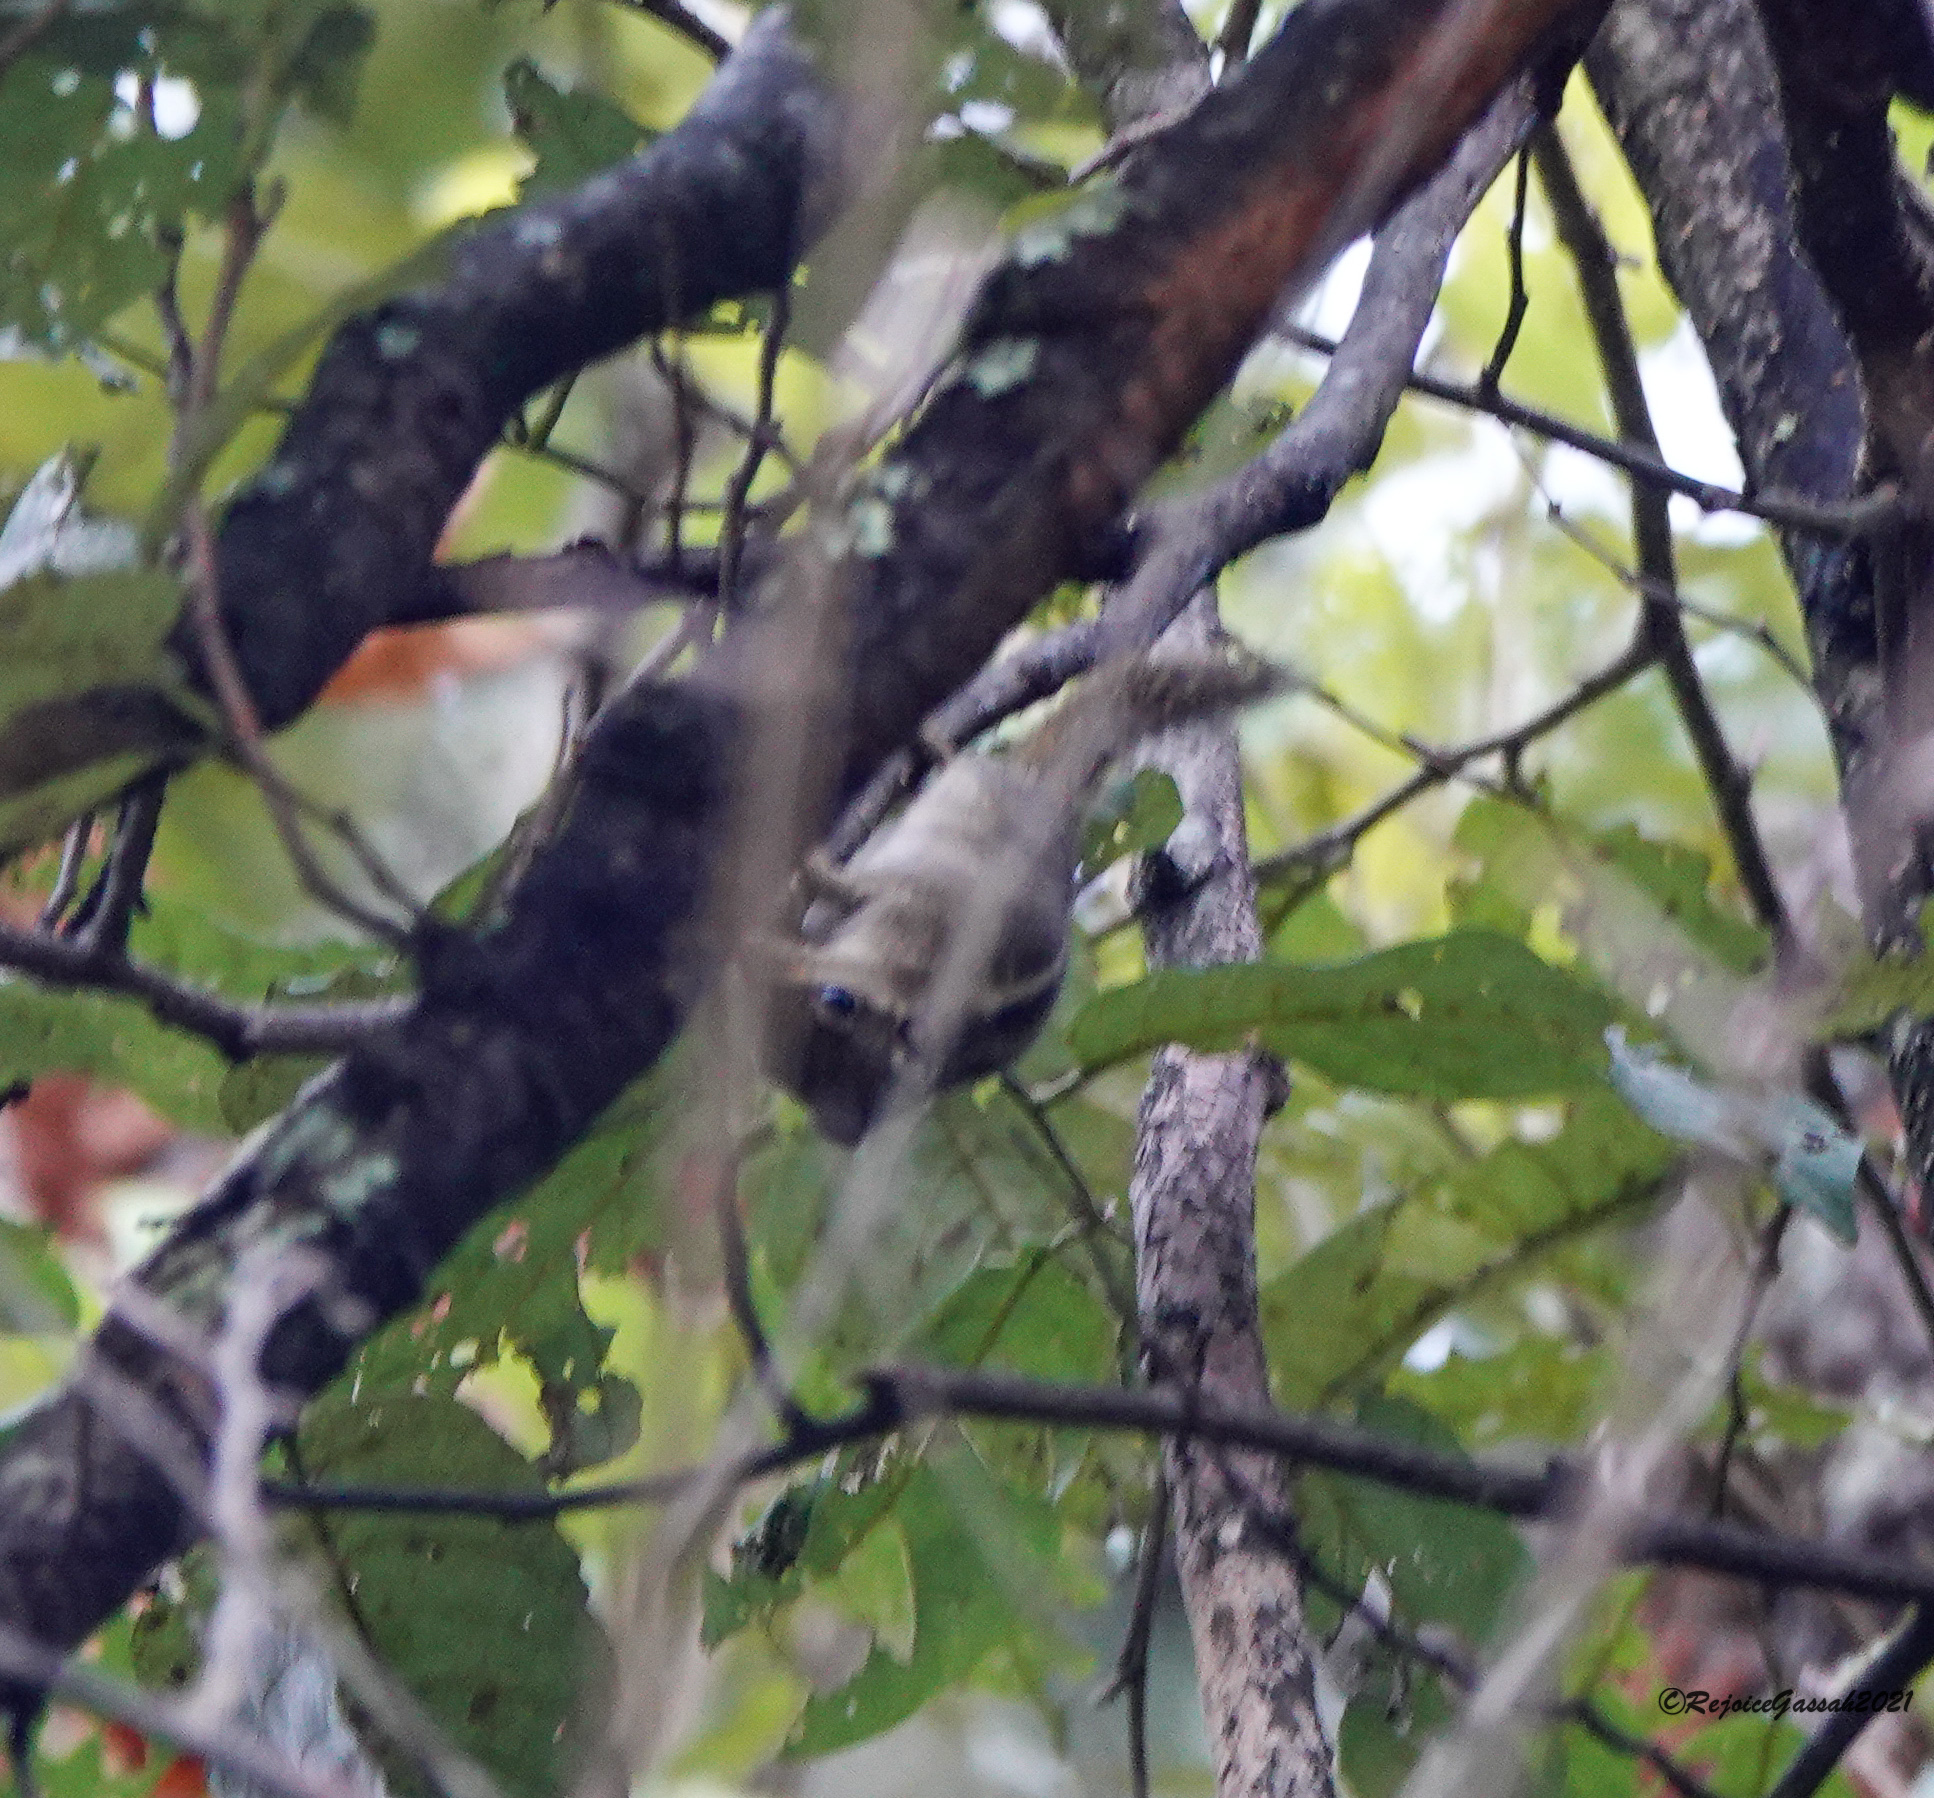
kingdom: Animalia
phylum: Chordata
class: Mammalia
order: Rodentia
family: Sciuridae
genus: Tamiops
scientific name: Tamiops mcclellandii
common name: Himalayan striped squirrel
